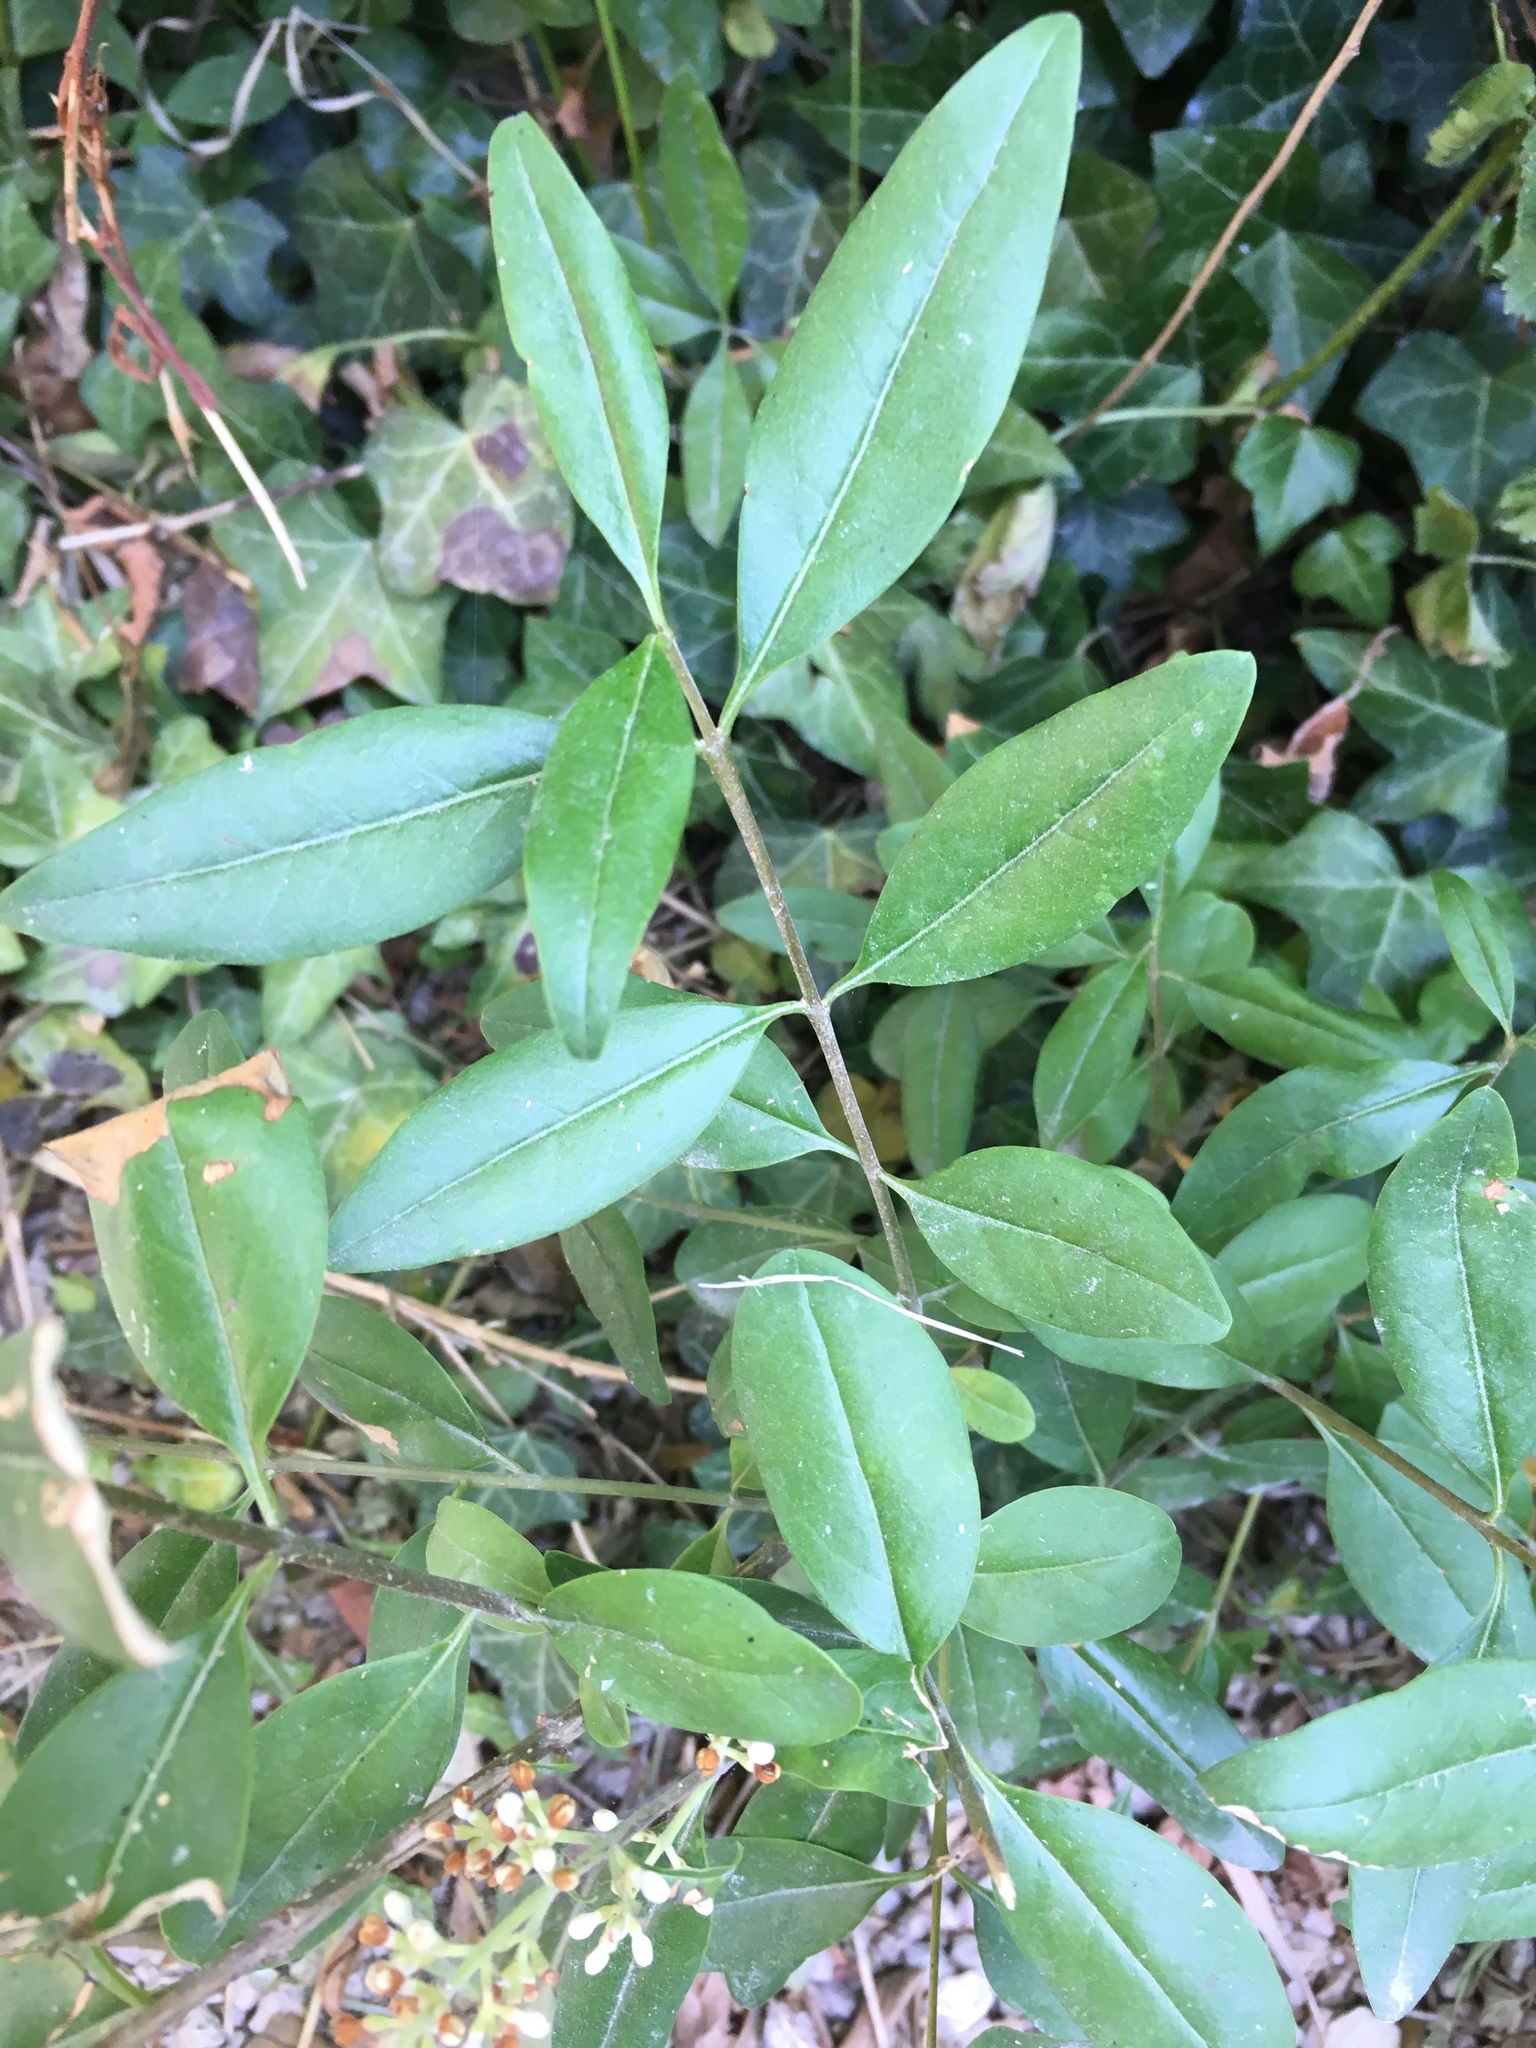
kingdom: Plantae
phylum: Tracheophyta
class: Magnoliopsida
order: Lamiales
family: Oleaceae
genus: Ligustrum
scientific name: Ligustrum vulgare
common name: Wild privet
